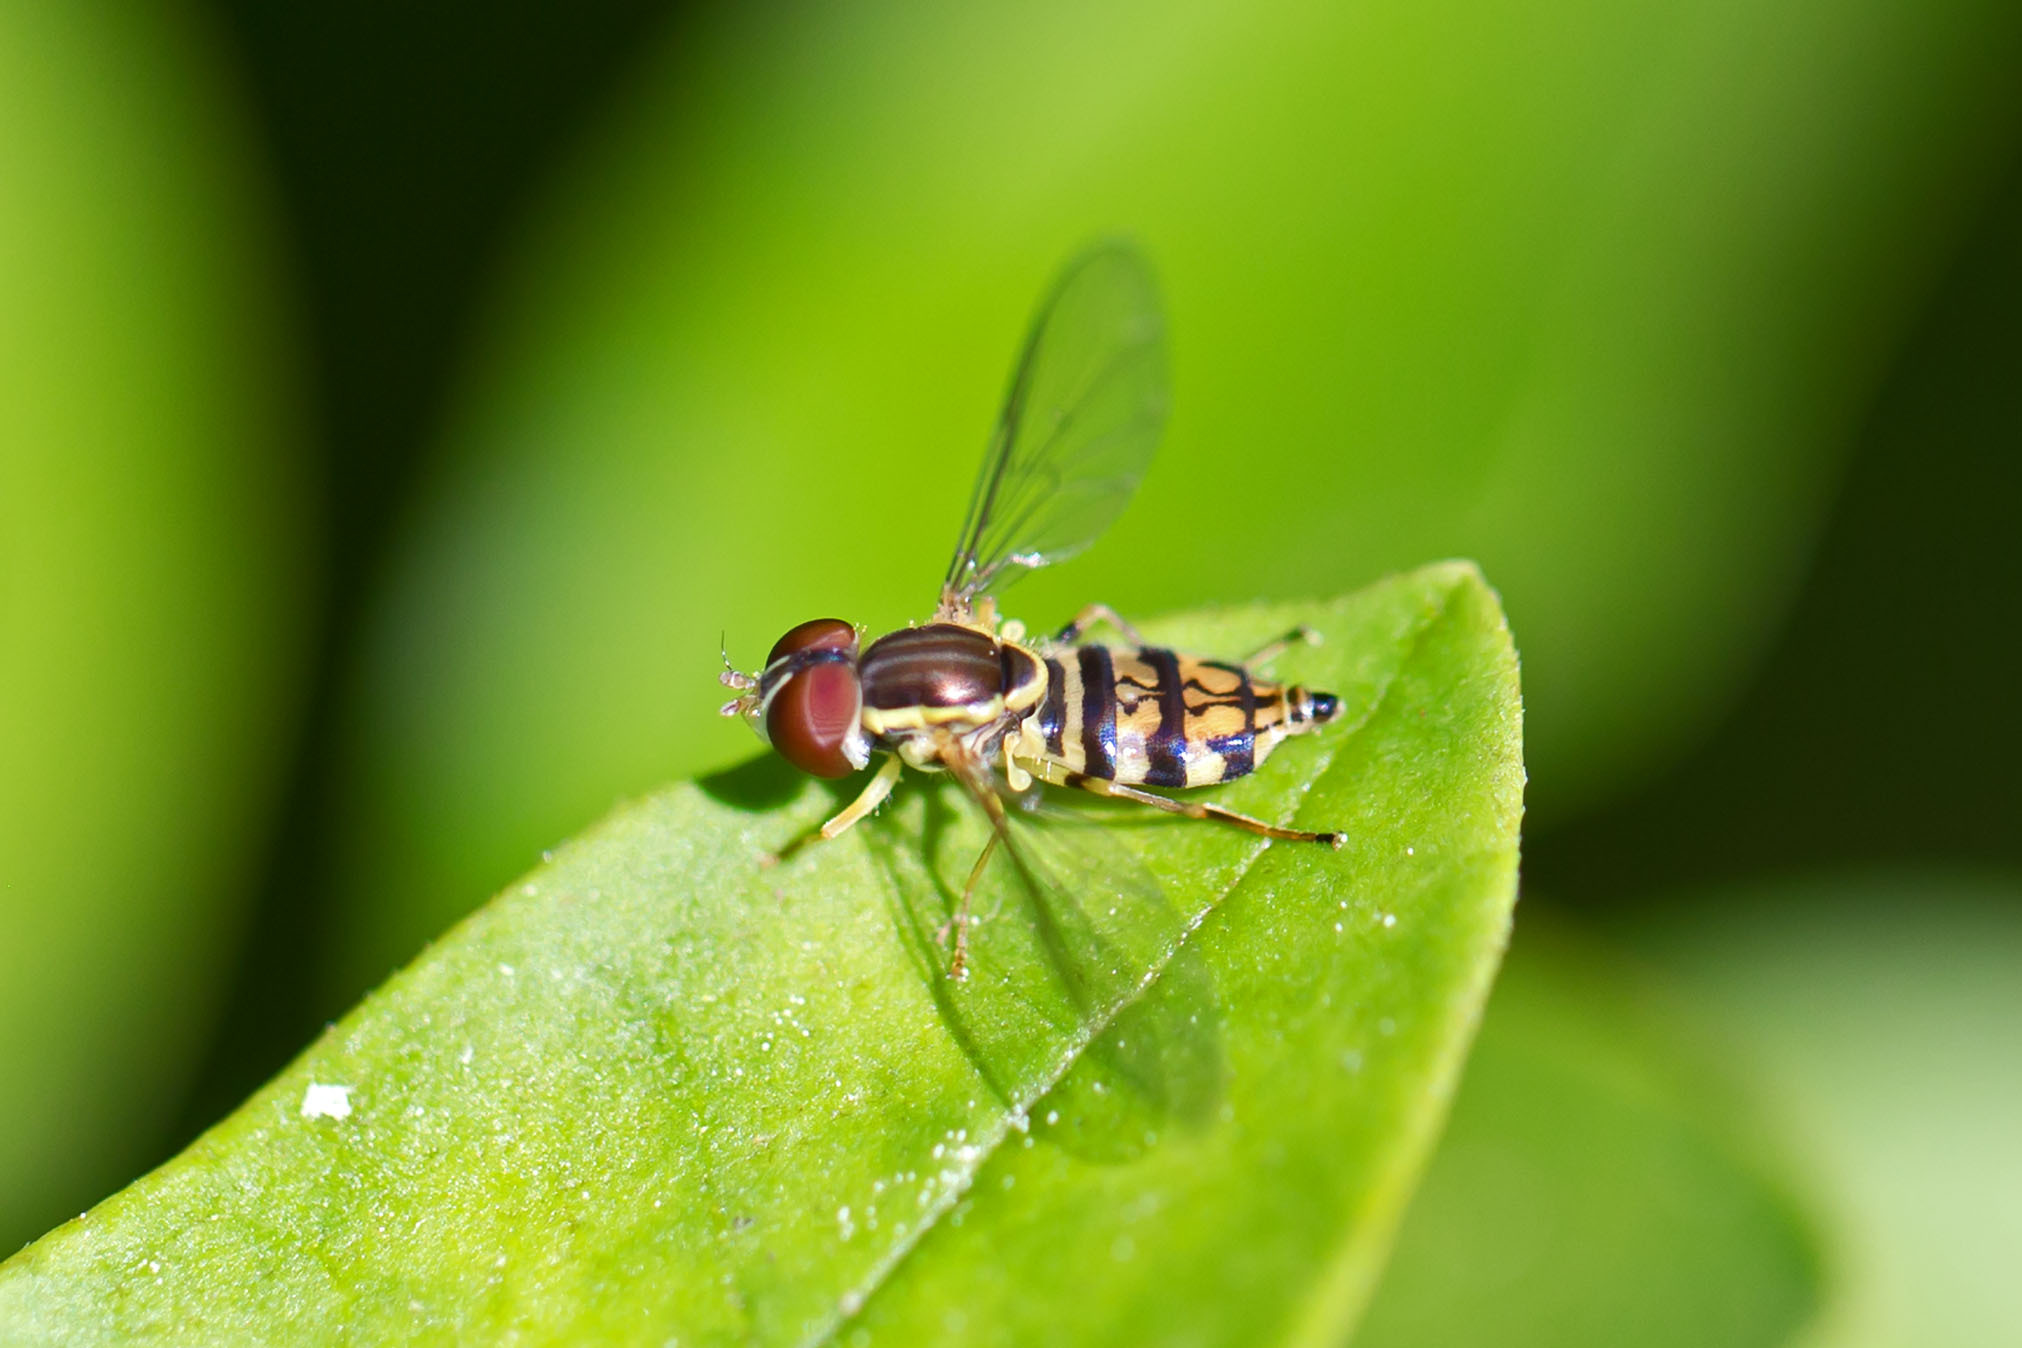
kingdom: Animalia
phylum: Arthropoda
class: Insecta
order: Diptera
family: Syrphidae
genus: Toxomerus
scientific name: Toxomerus geminatus
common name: Eastern calligrapher
